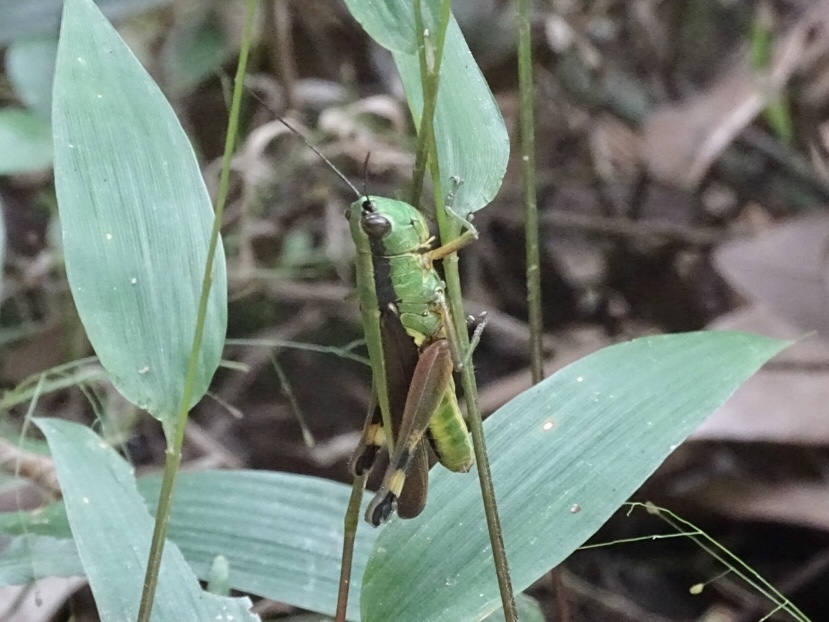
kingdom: Animalia
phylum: Arthropoda
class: Insecta
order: Orthoptera
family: Acrididae
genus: Ceracris
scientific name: Ceracris nigricornis
